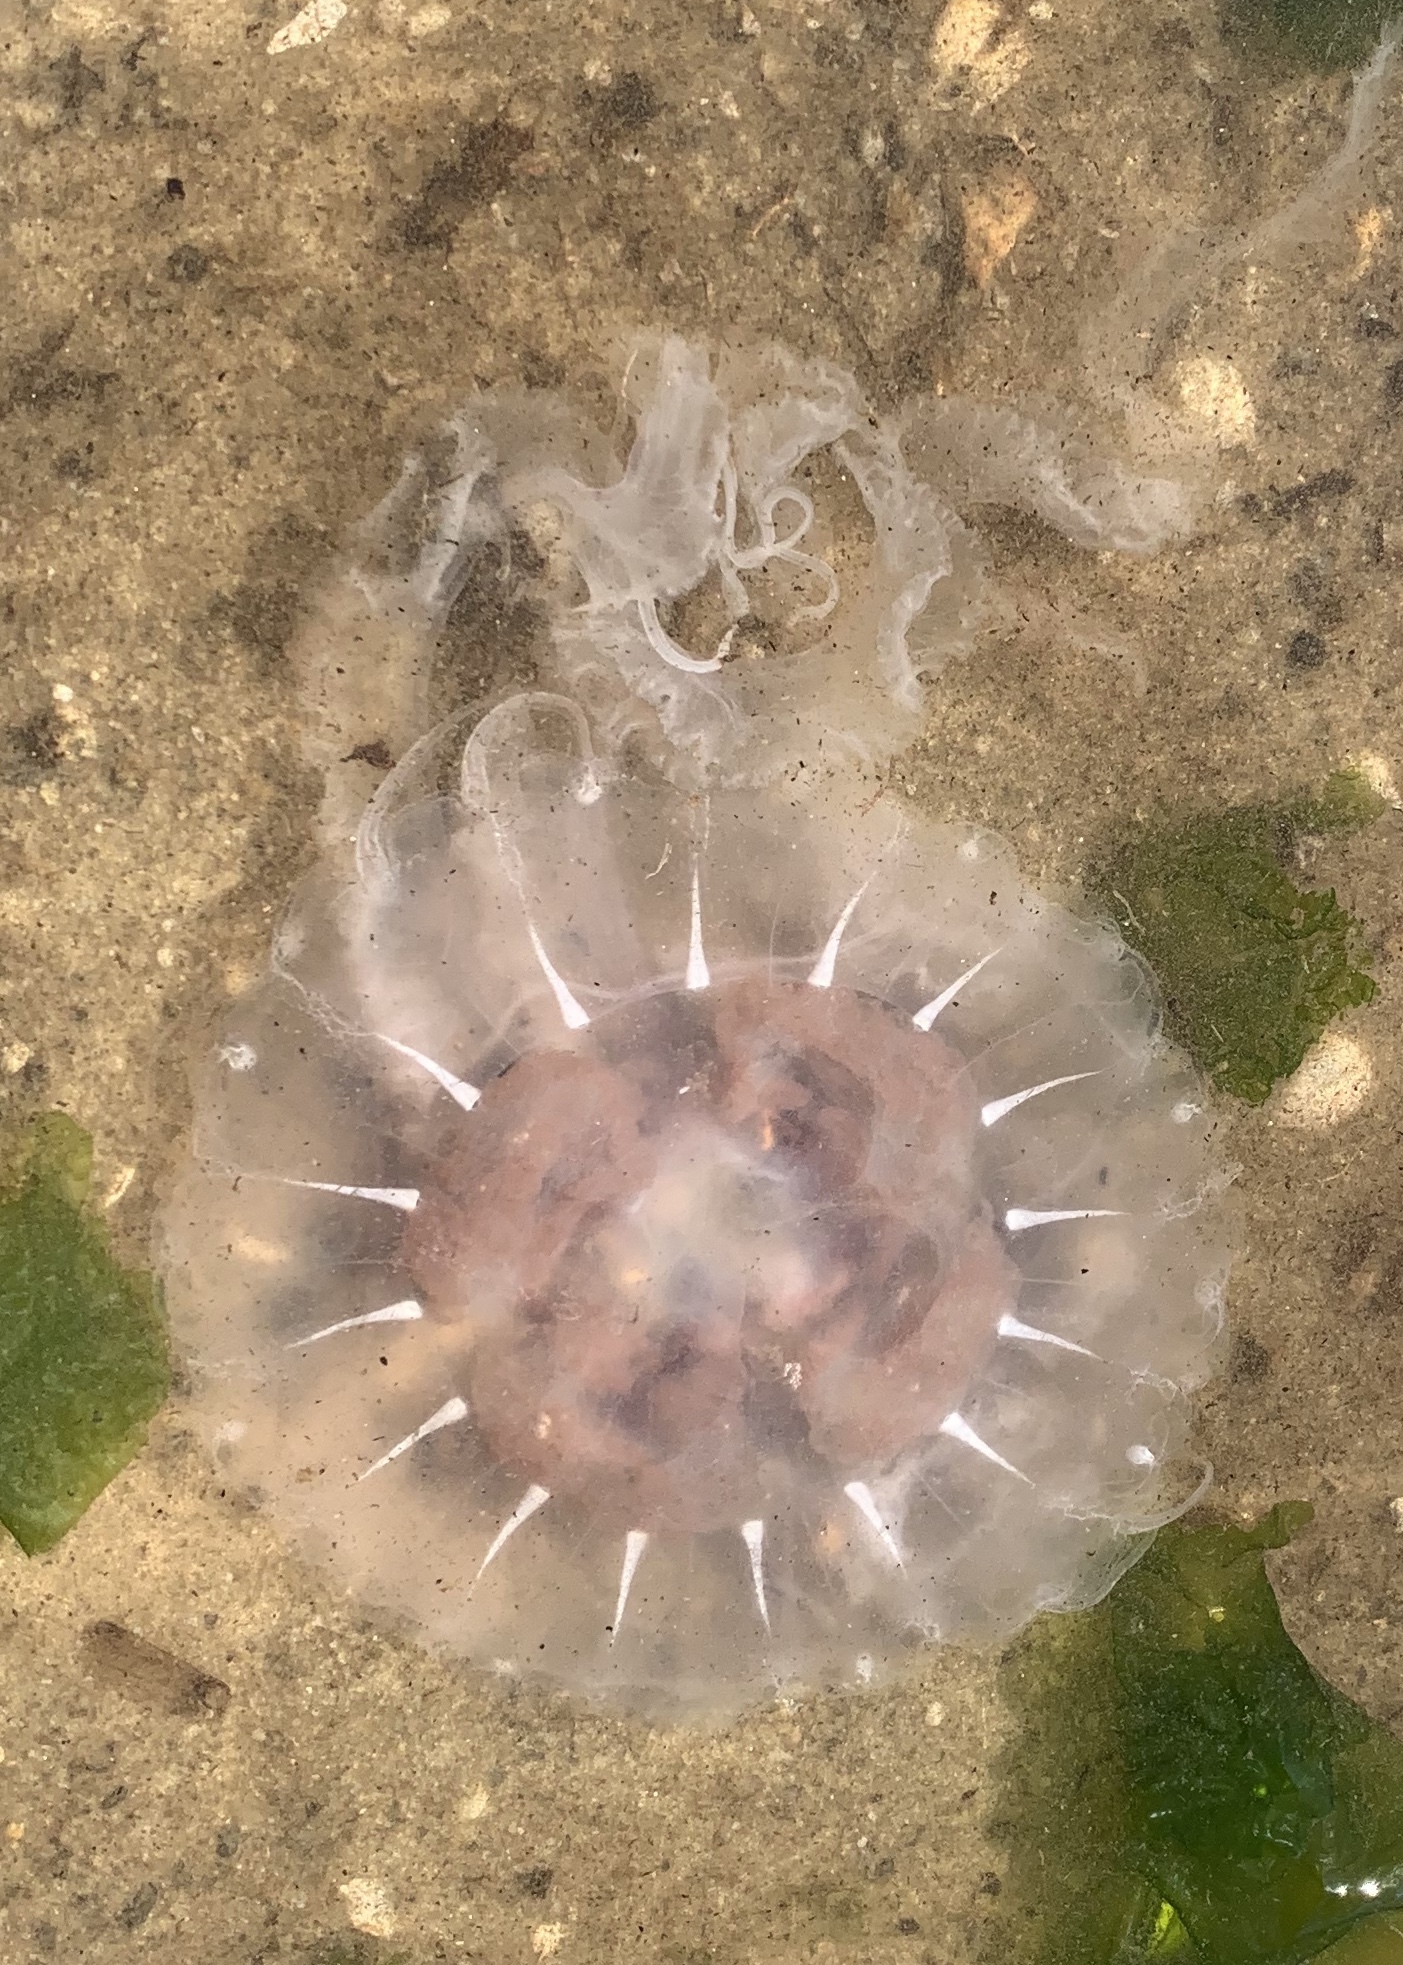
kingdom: Animalia
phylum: Cnidaria
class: Scyphozoa
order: Semaeostomeae
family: Pelagiidae
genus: Chrysaora
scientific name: Chrysaora chesapeakei
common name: Bay nettle
